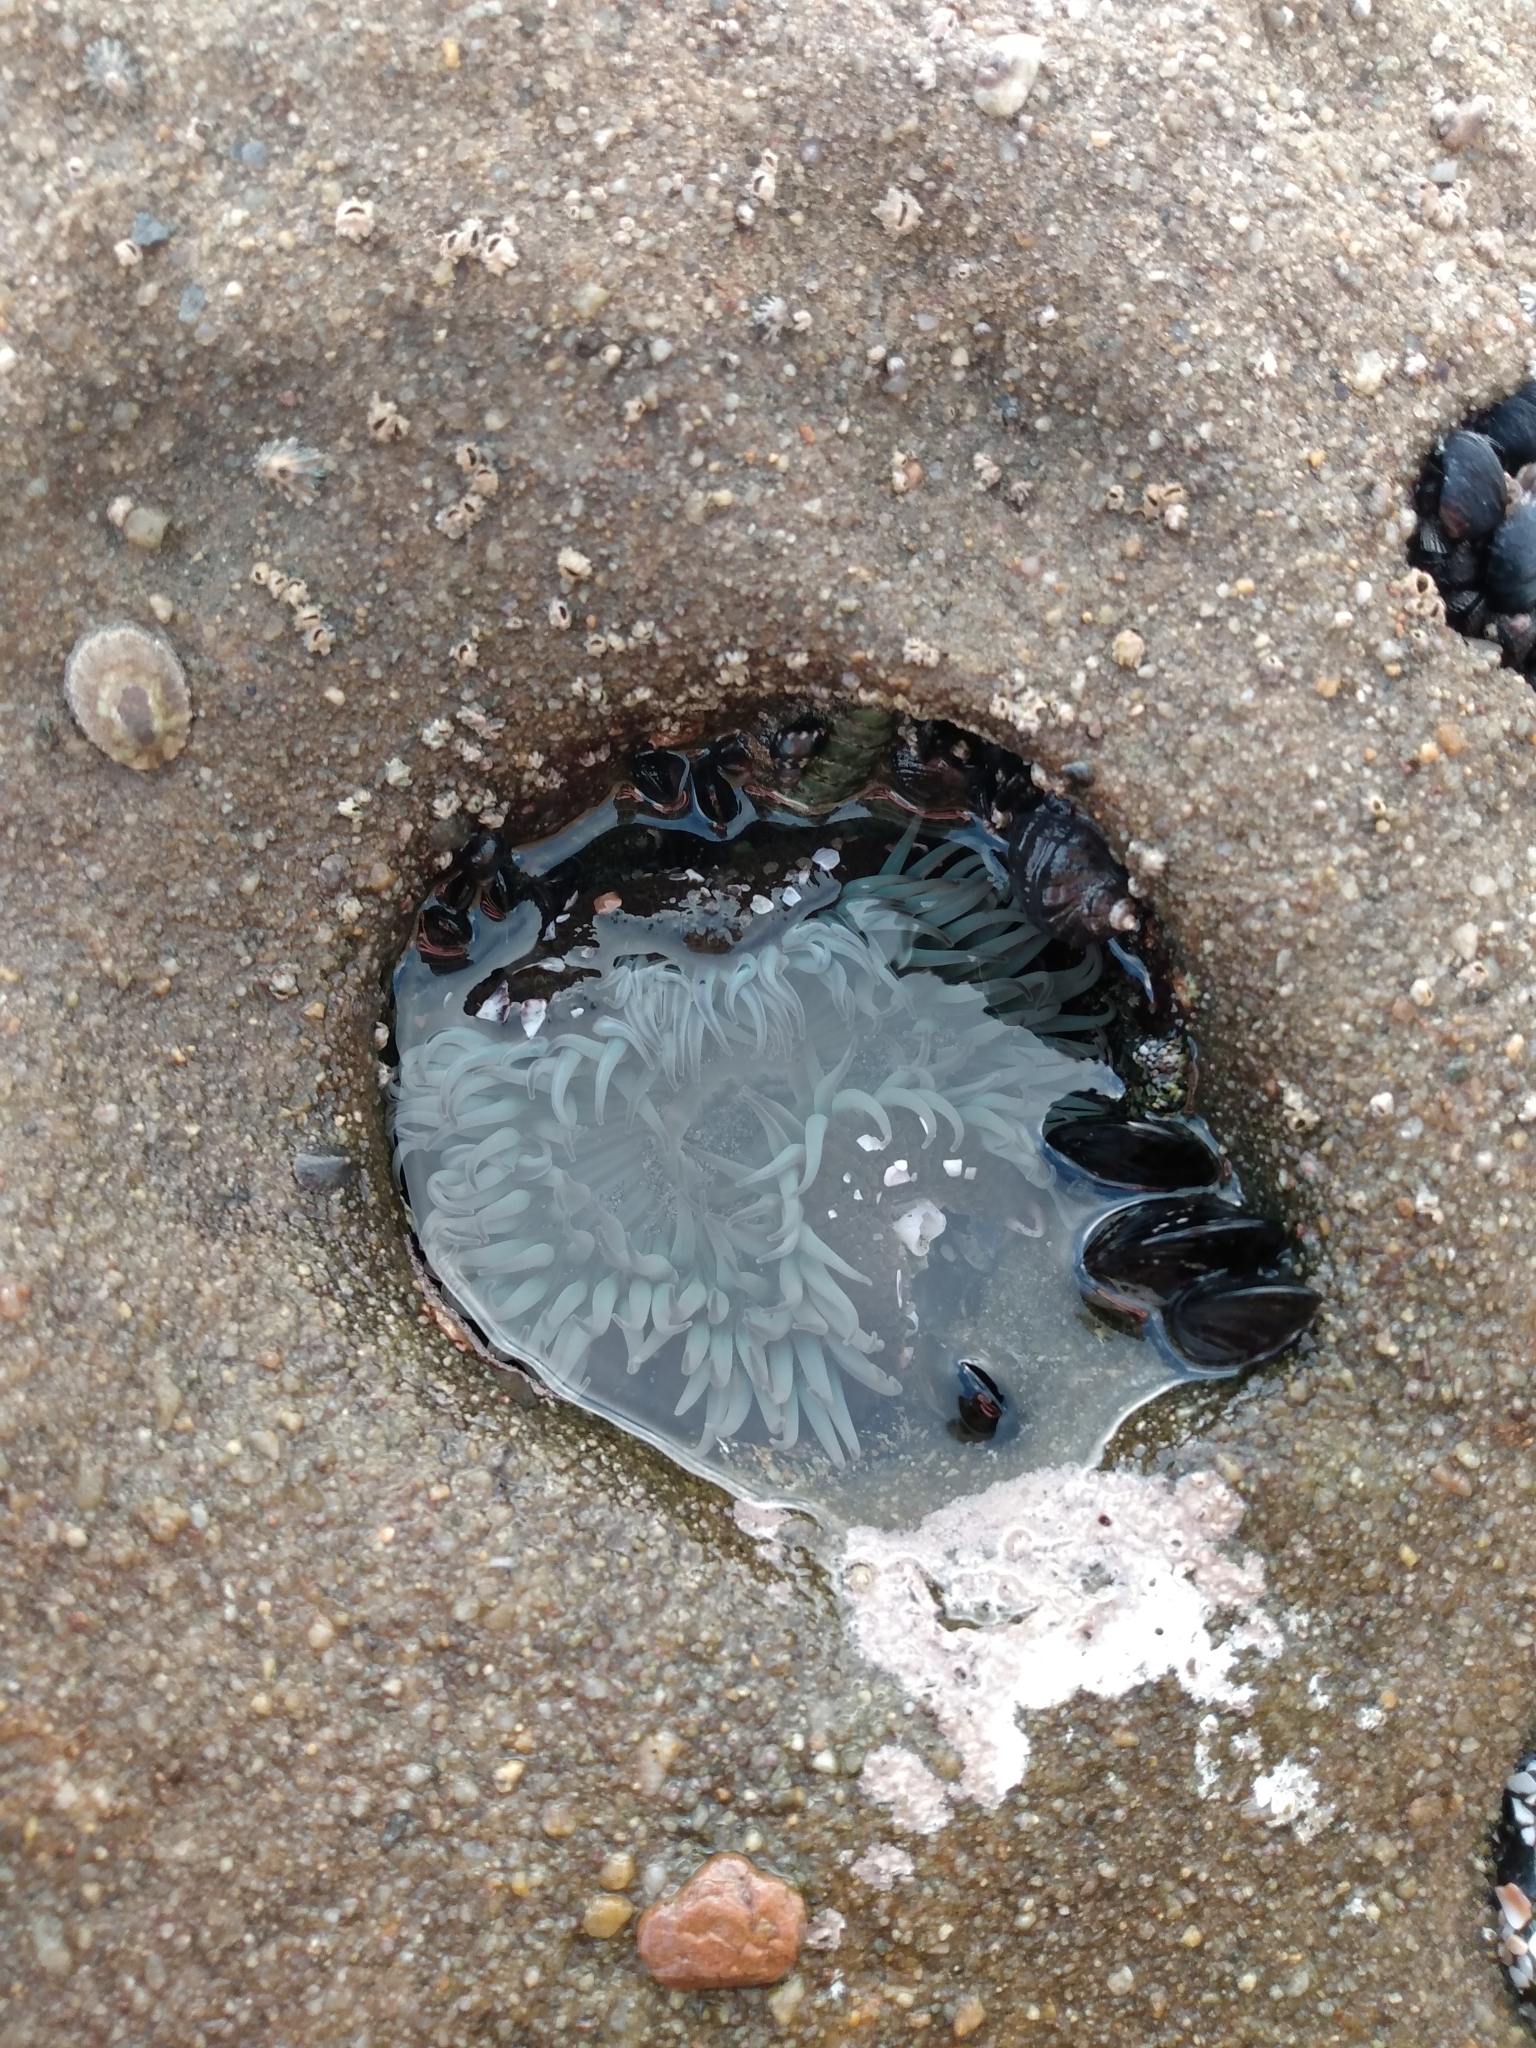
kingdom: Animalia
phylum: Cnidaria
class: Anthozoa
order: Actiniaria
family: Actiniidae
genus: Anthopleura
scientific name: Anthopleura sola
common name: Sun anemone
